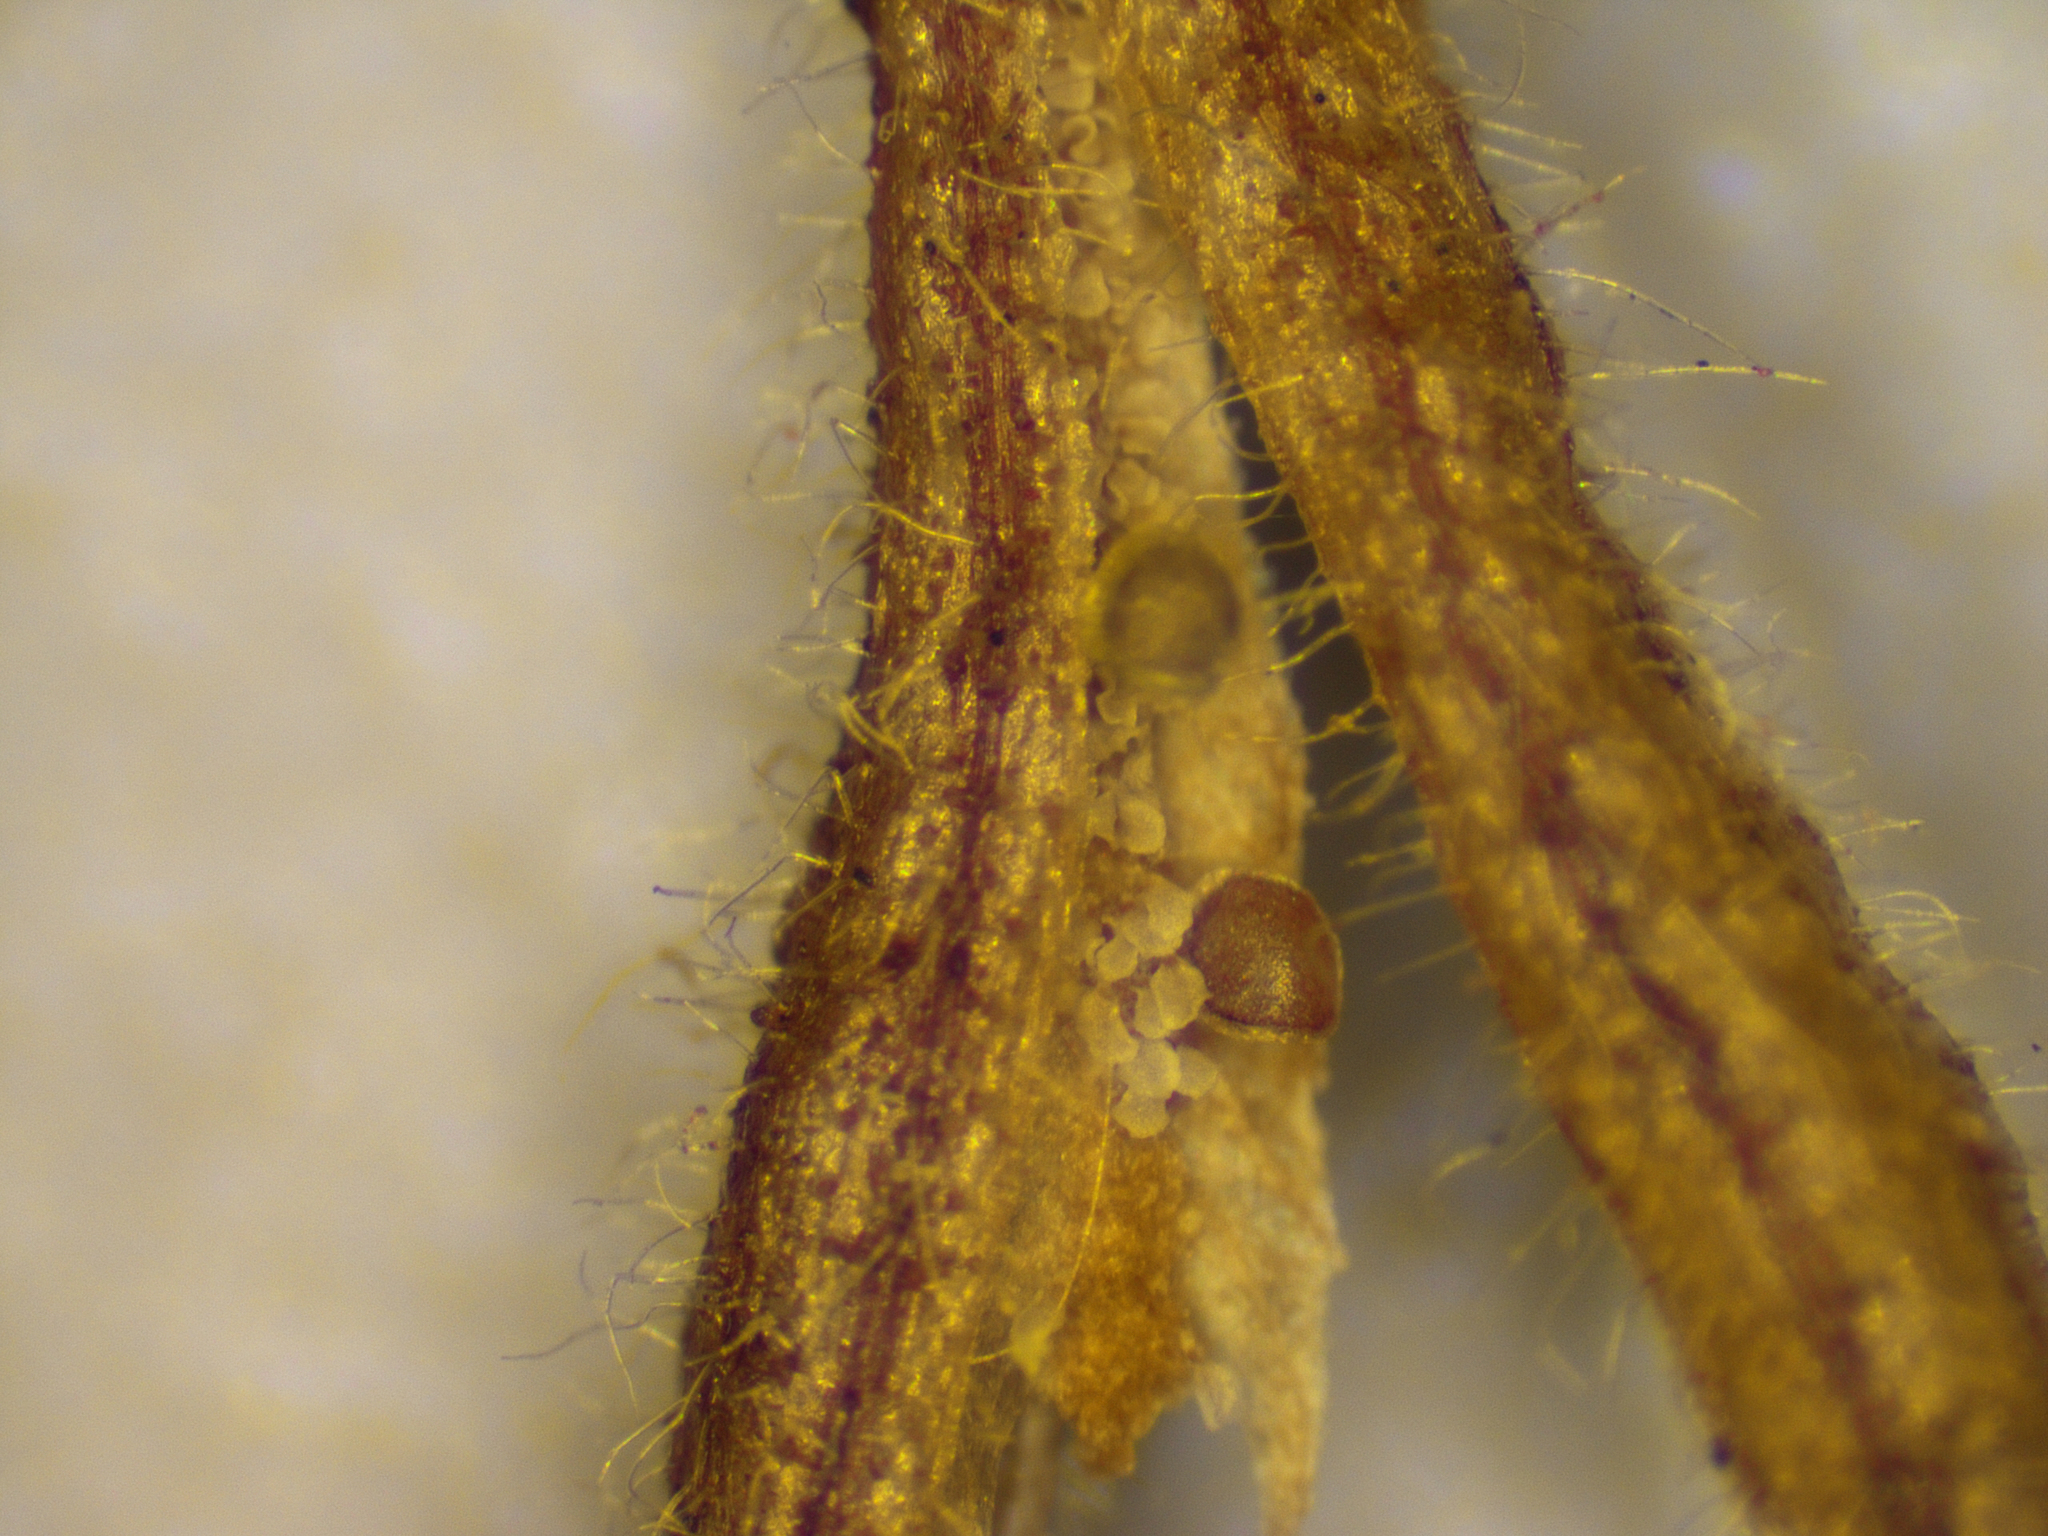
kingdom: Plantae
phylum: Tracheophyta
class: Magnoliopsida
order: Asterales
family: Goodeniaceae
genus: Goodenia
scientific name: Goodenia bicolor
